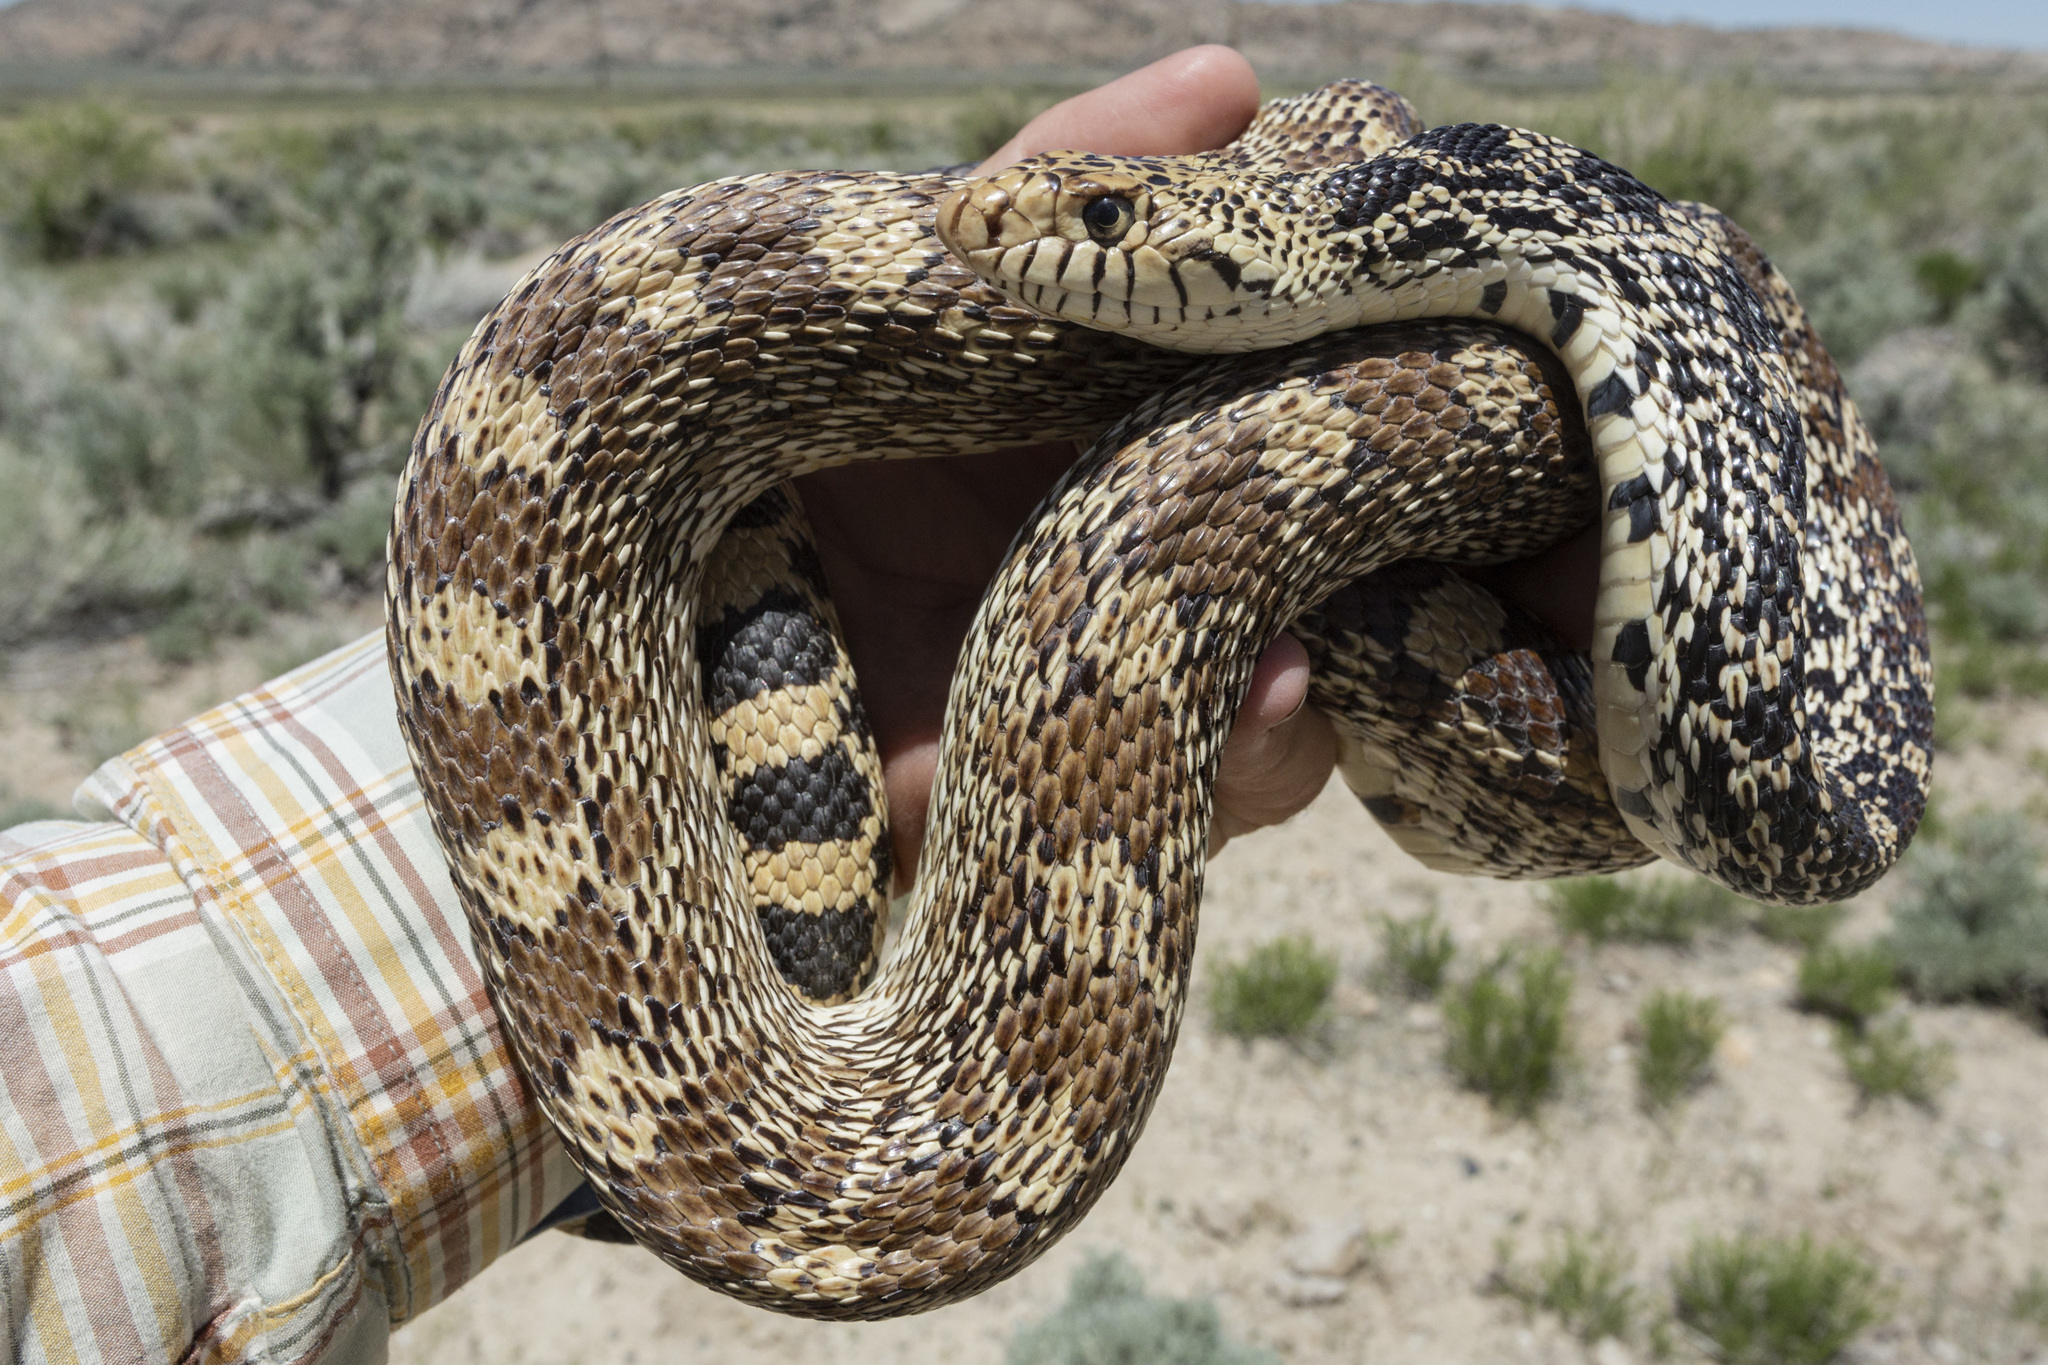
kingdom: Animalia
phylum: Chordata
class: Squamata
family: Colubridae
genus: Pituophis
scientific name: Pituophis catenifer
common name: Gopher snake
